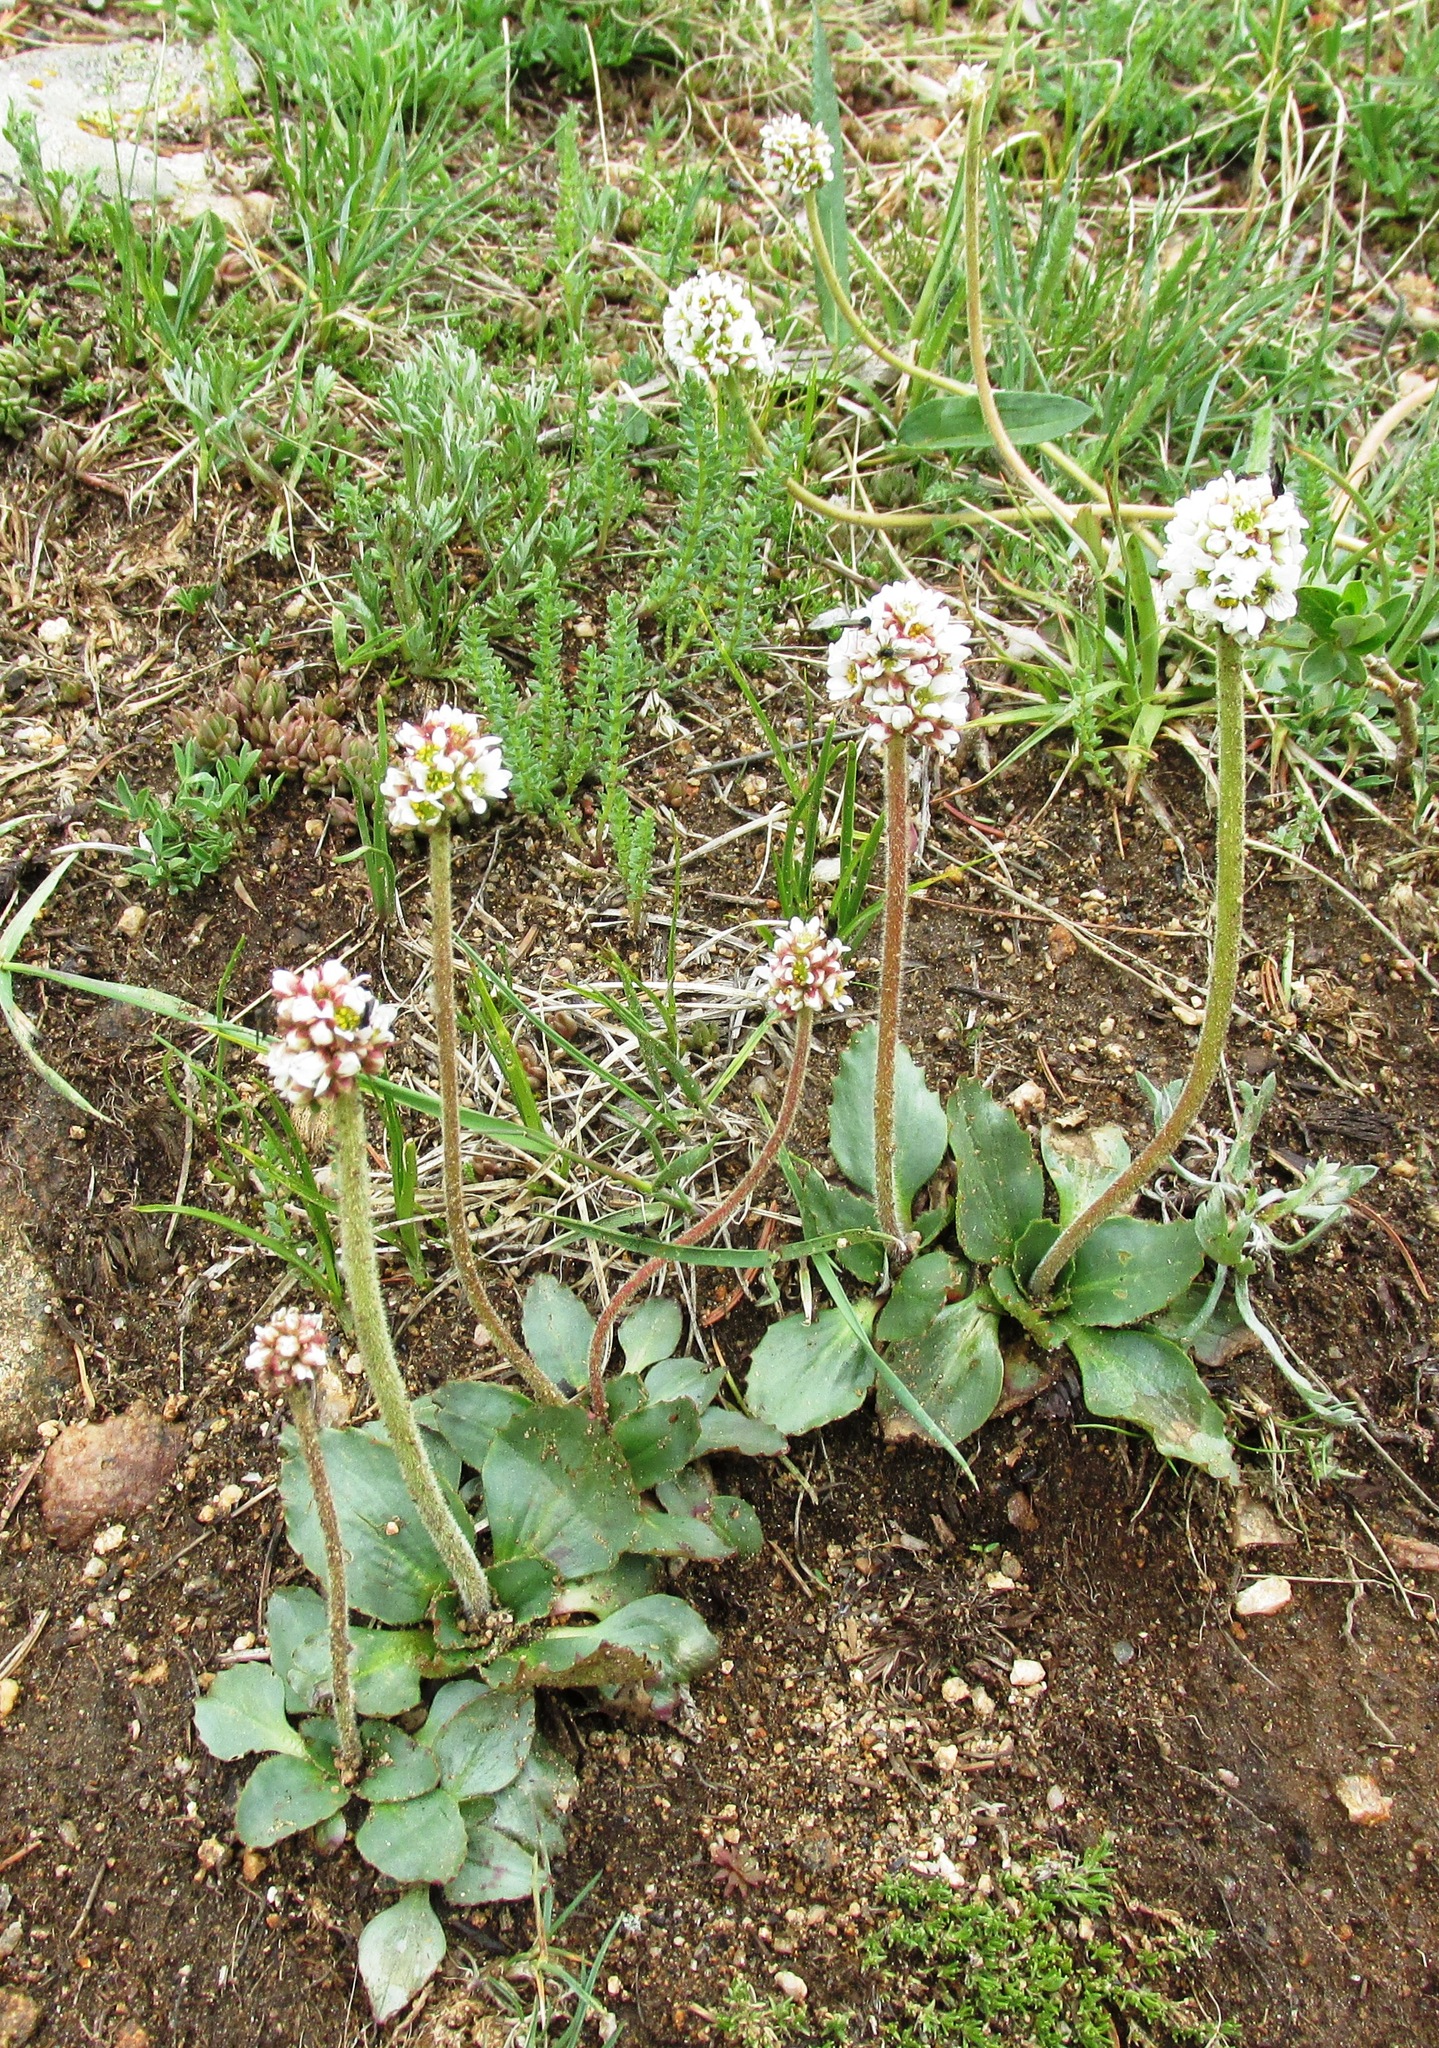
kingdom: Plantae
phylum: Tracheophyta
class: Magnoliopsida
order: Saxifragales
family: Saxifragaceae
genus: Micranthes
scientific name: Micranthes rhomboidea
